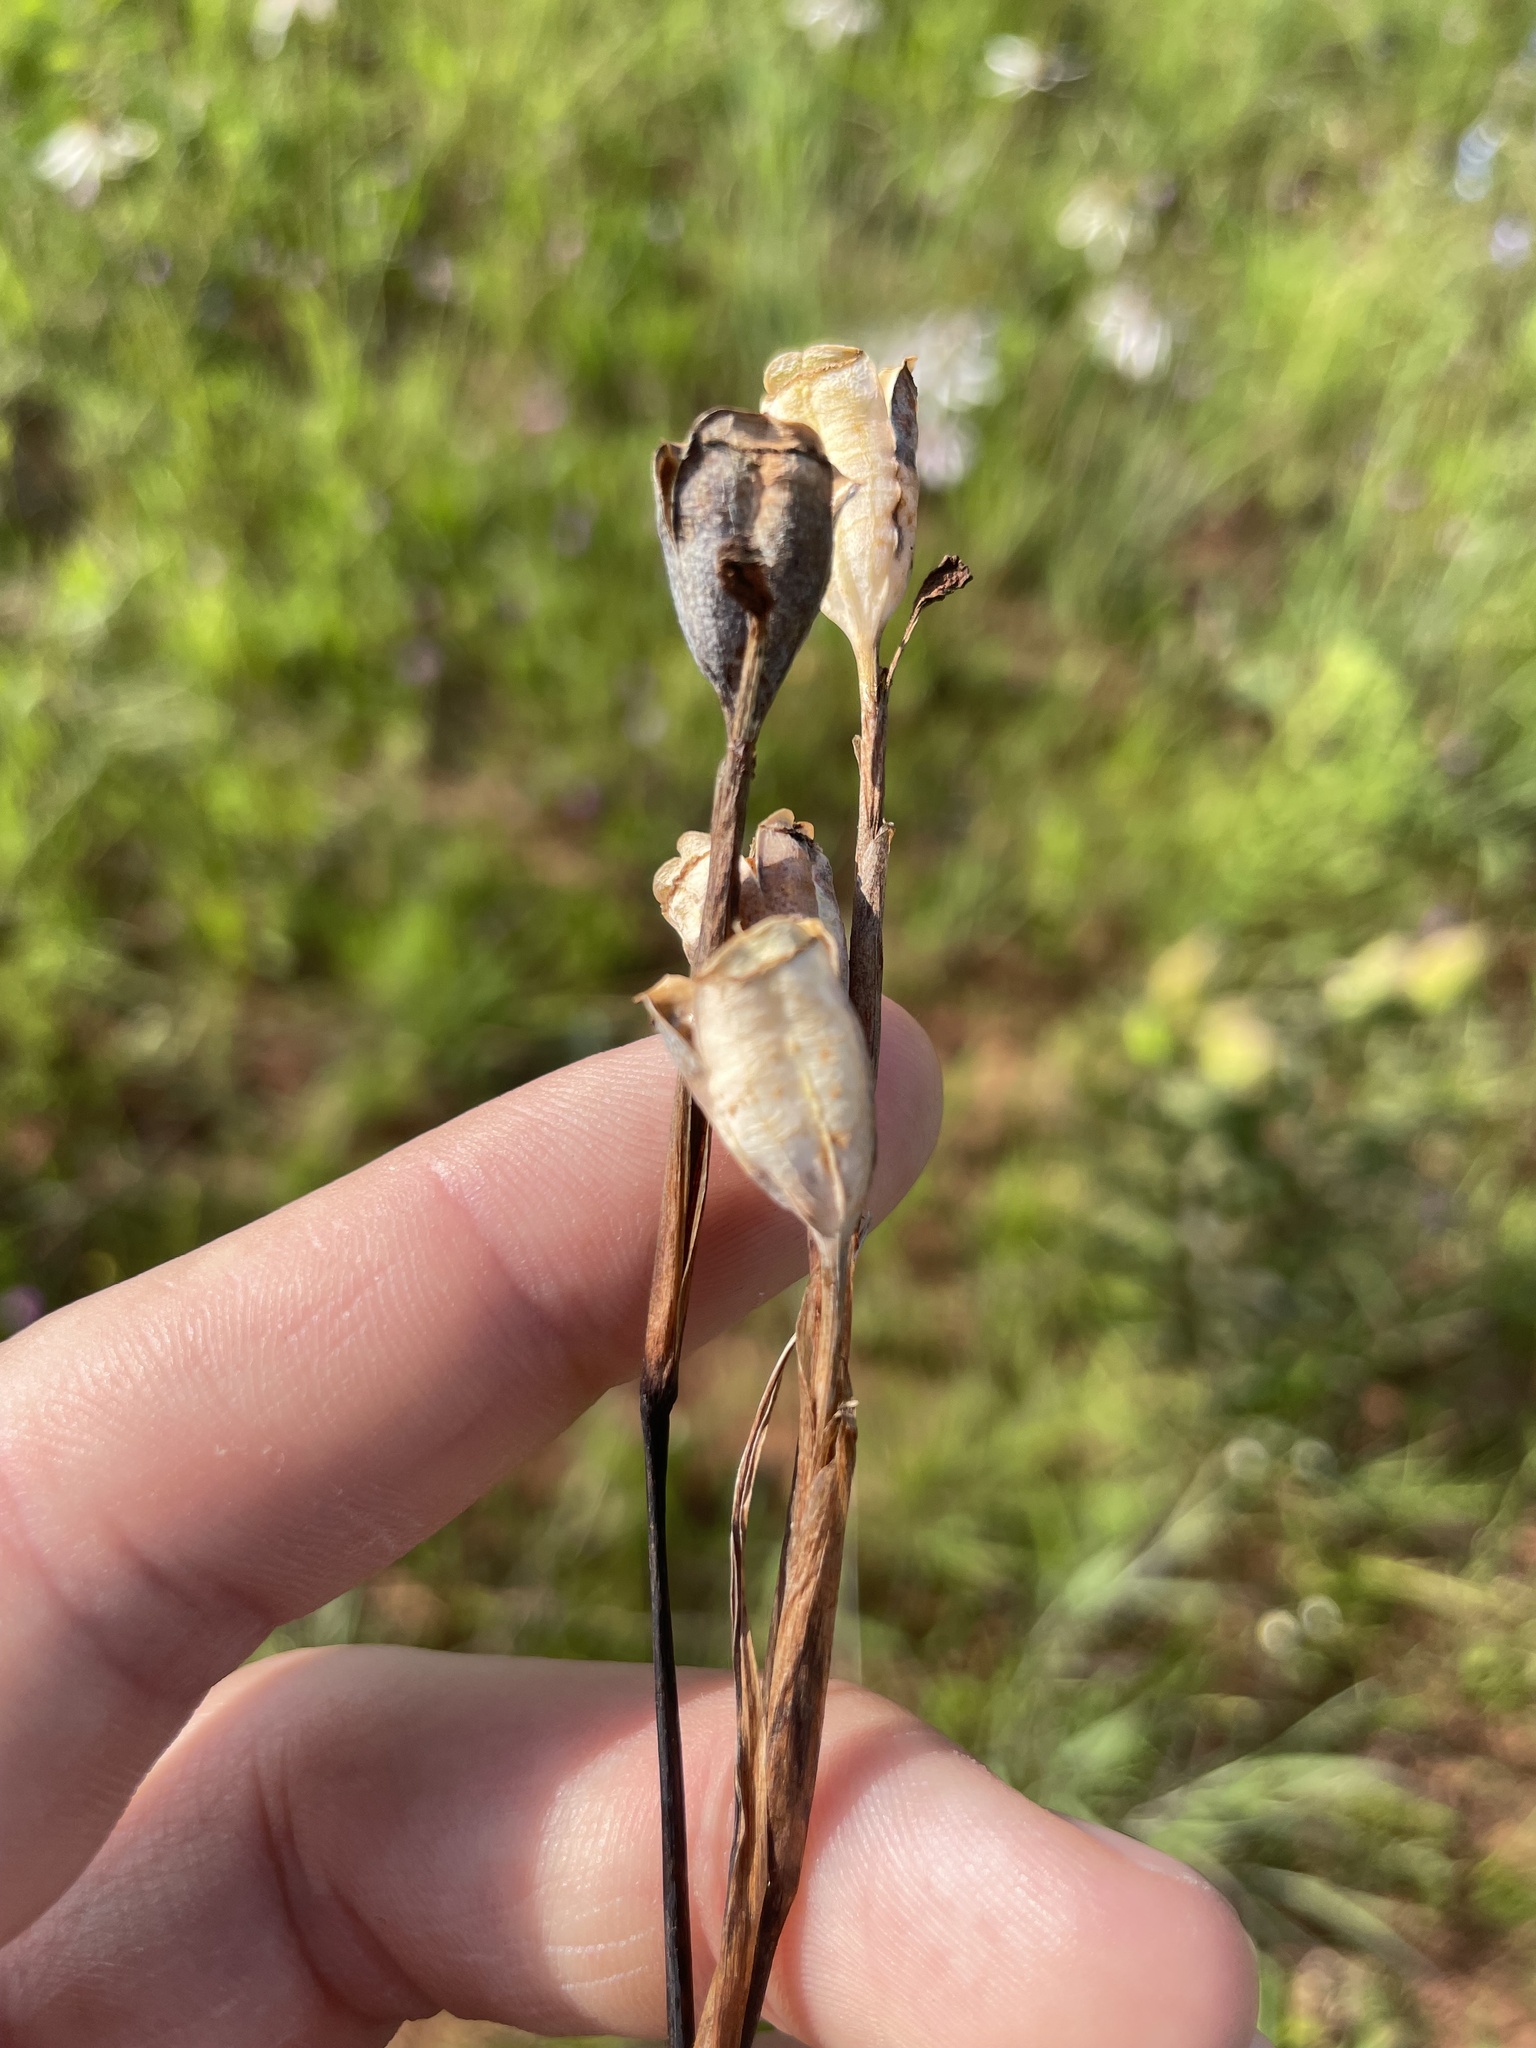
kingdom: Plantae
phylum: Tracheophyta
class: Liliopsida
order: Asparagales
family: Iridaceae
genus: Nemastylis
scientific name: Nemastylis geminiflora
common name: Prairie celestial
